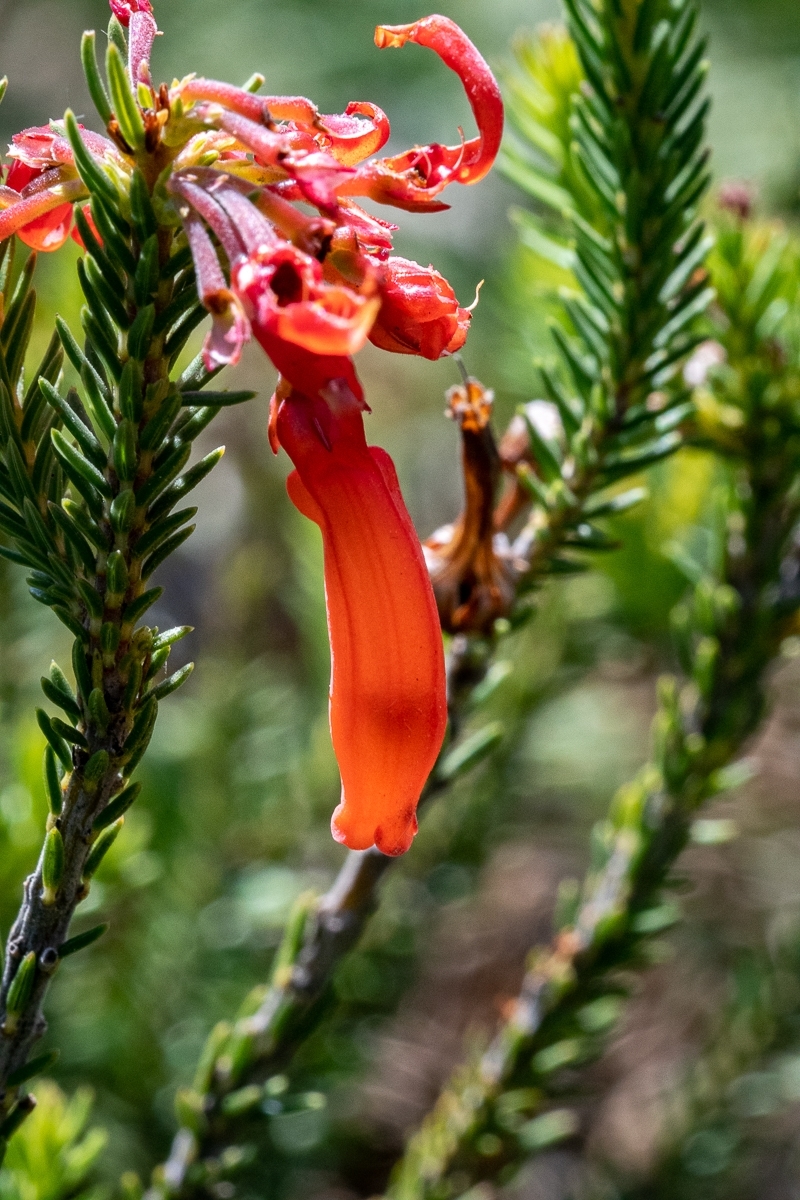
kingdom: Plantae
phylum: Tracheophyta
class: Magnoliopsida
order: Ericales
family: Ericaceae
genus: Erica
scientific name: Erica mammosa
